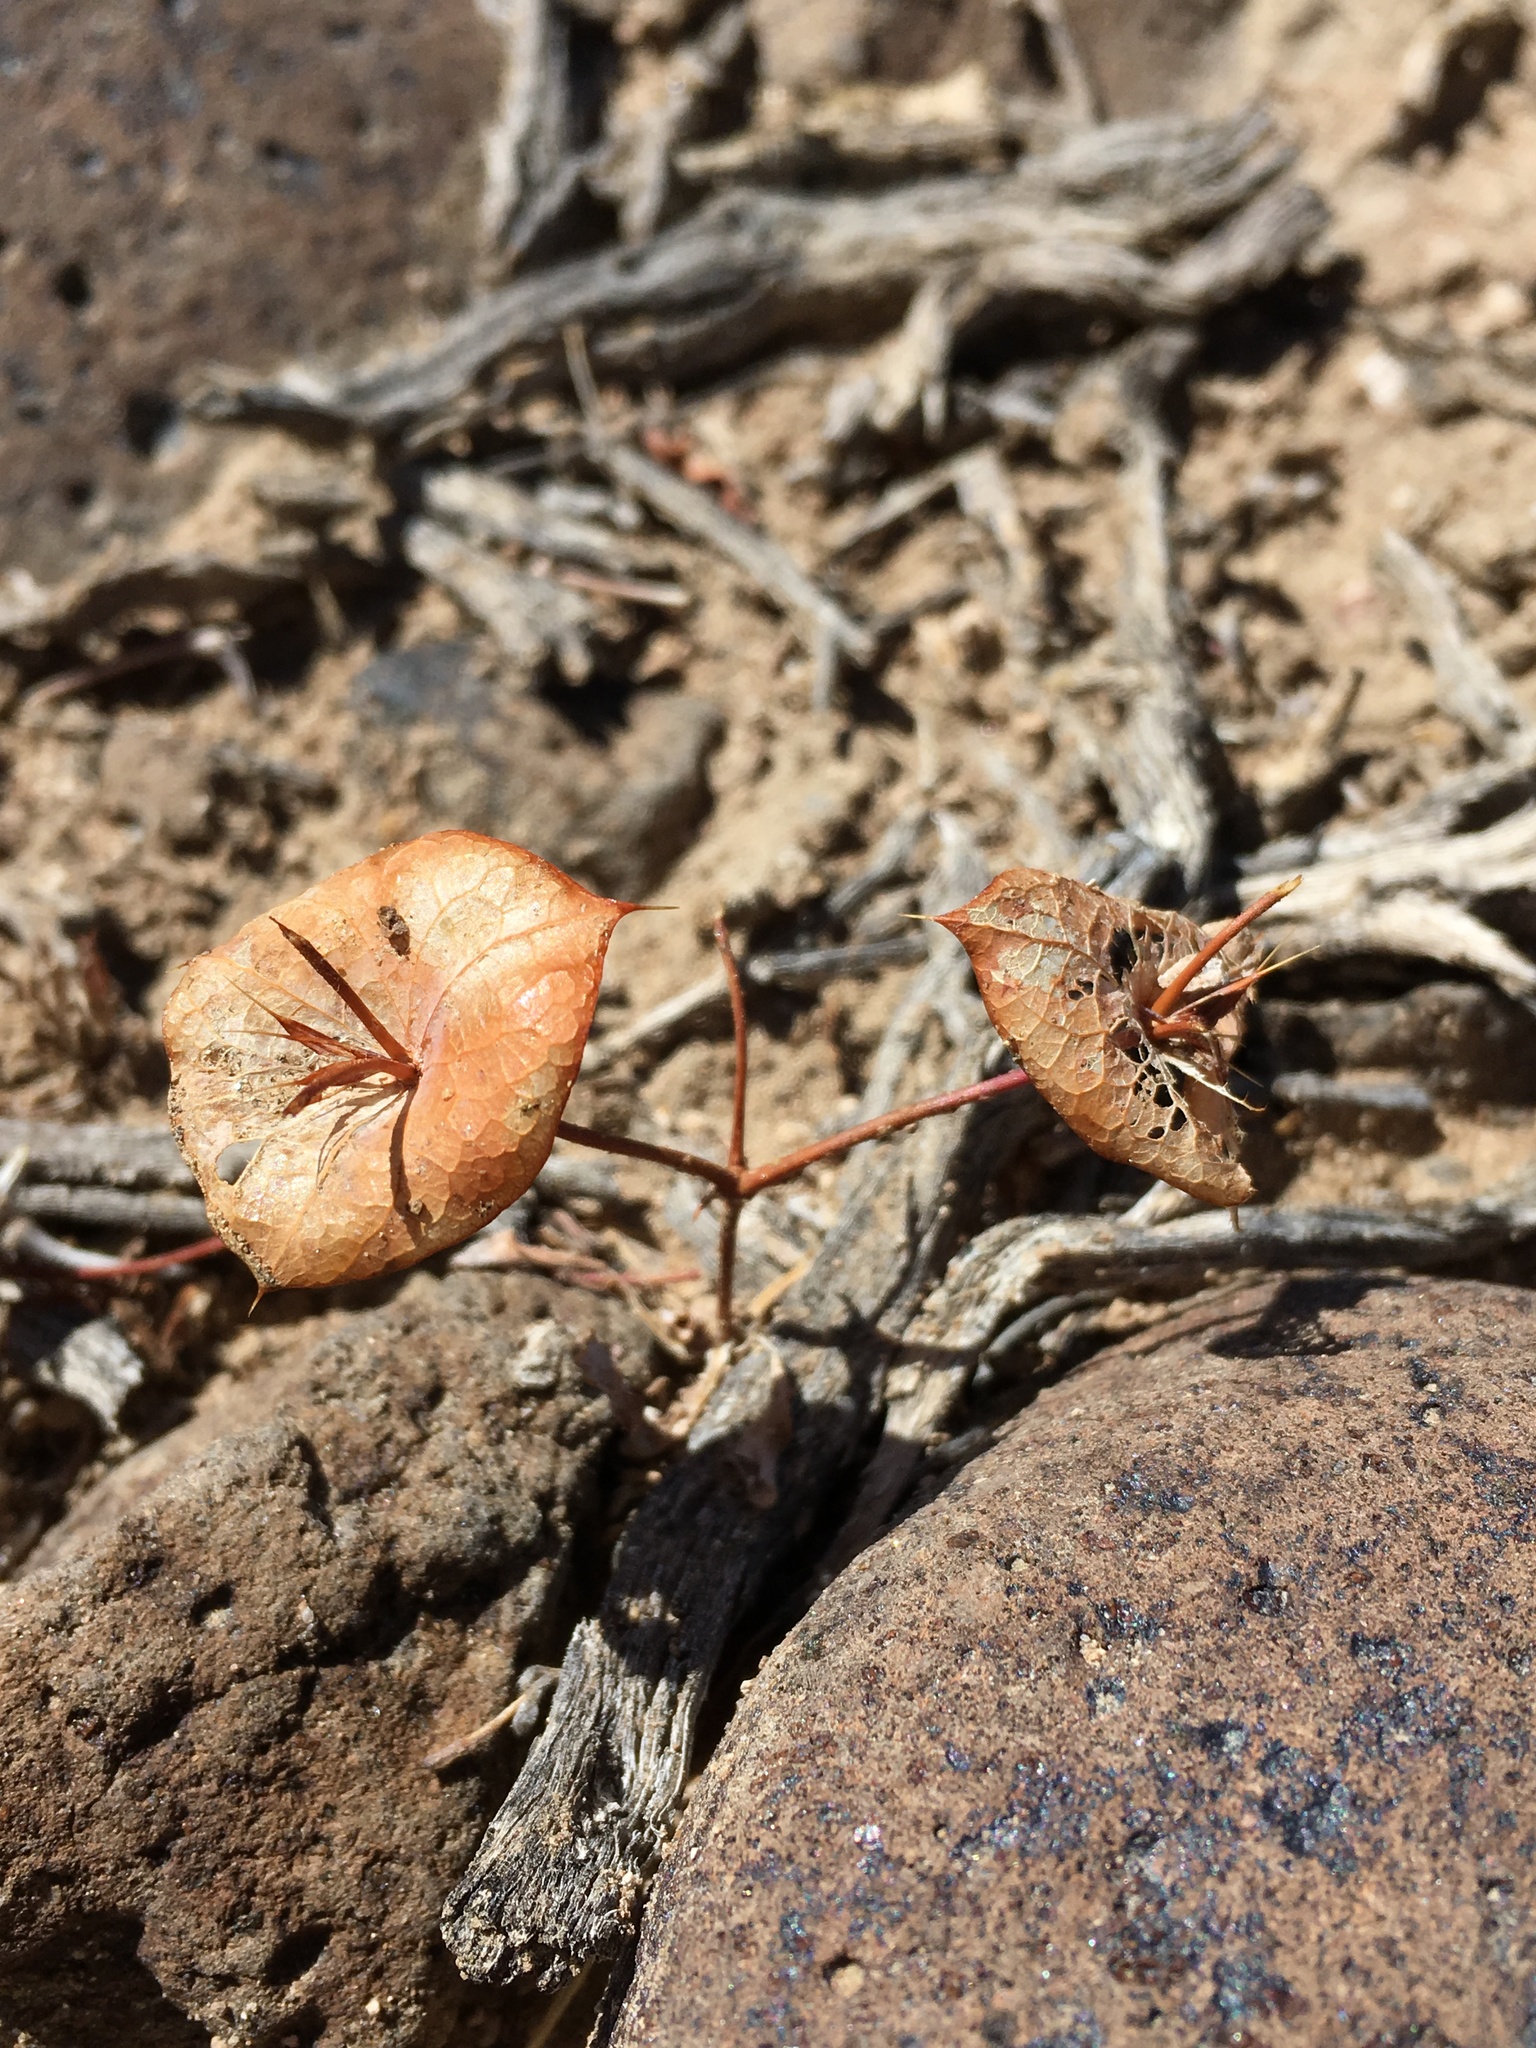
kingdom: Plantae
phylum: Tracheophyta
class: Magnoliopsida
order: Caryophyllales
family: Polygonaceae
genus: Oxytheca
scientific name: Oxytheca perfoliata
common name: Round-leaf puncturebract
